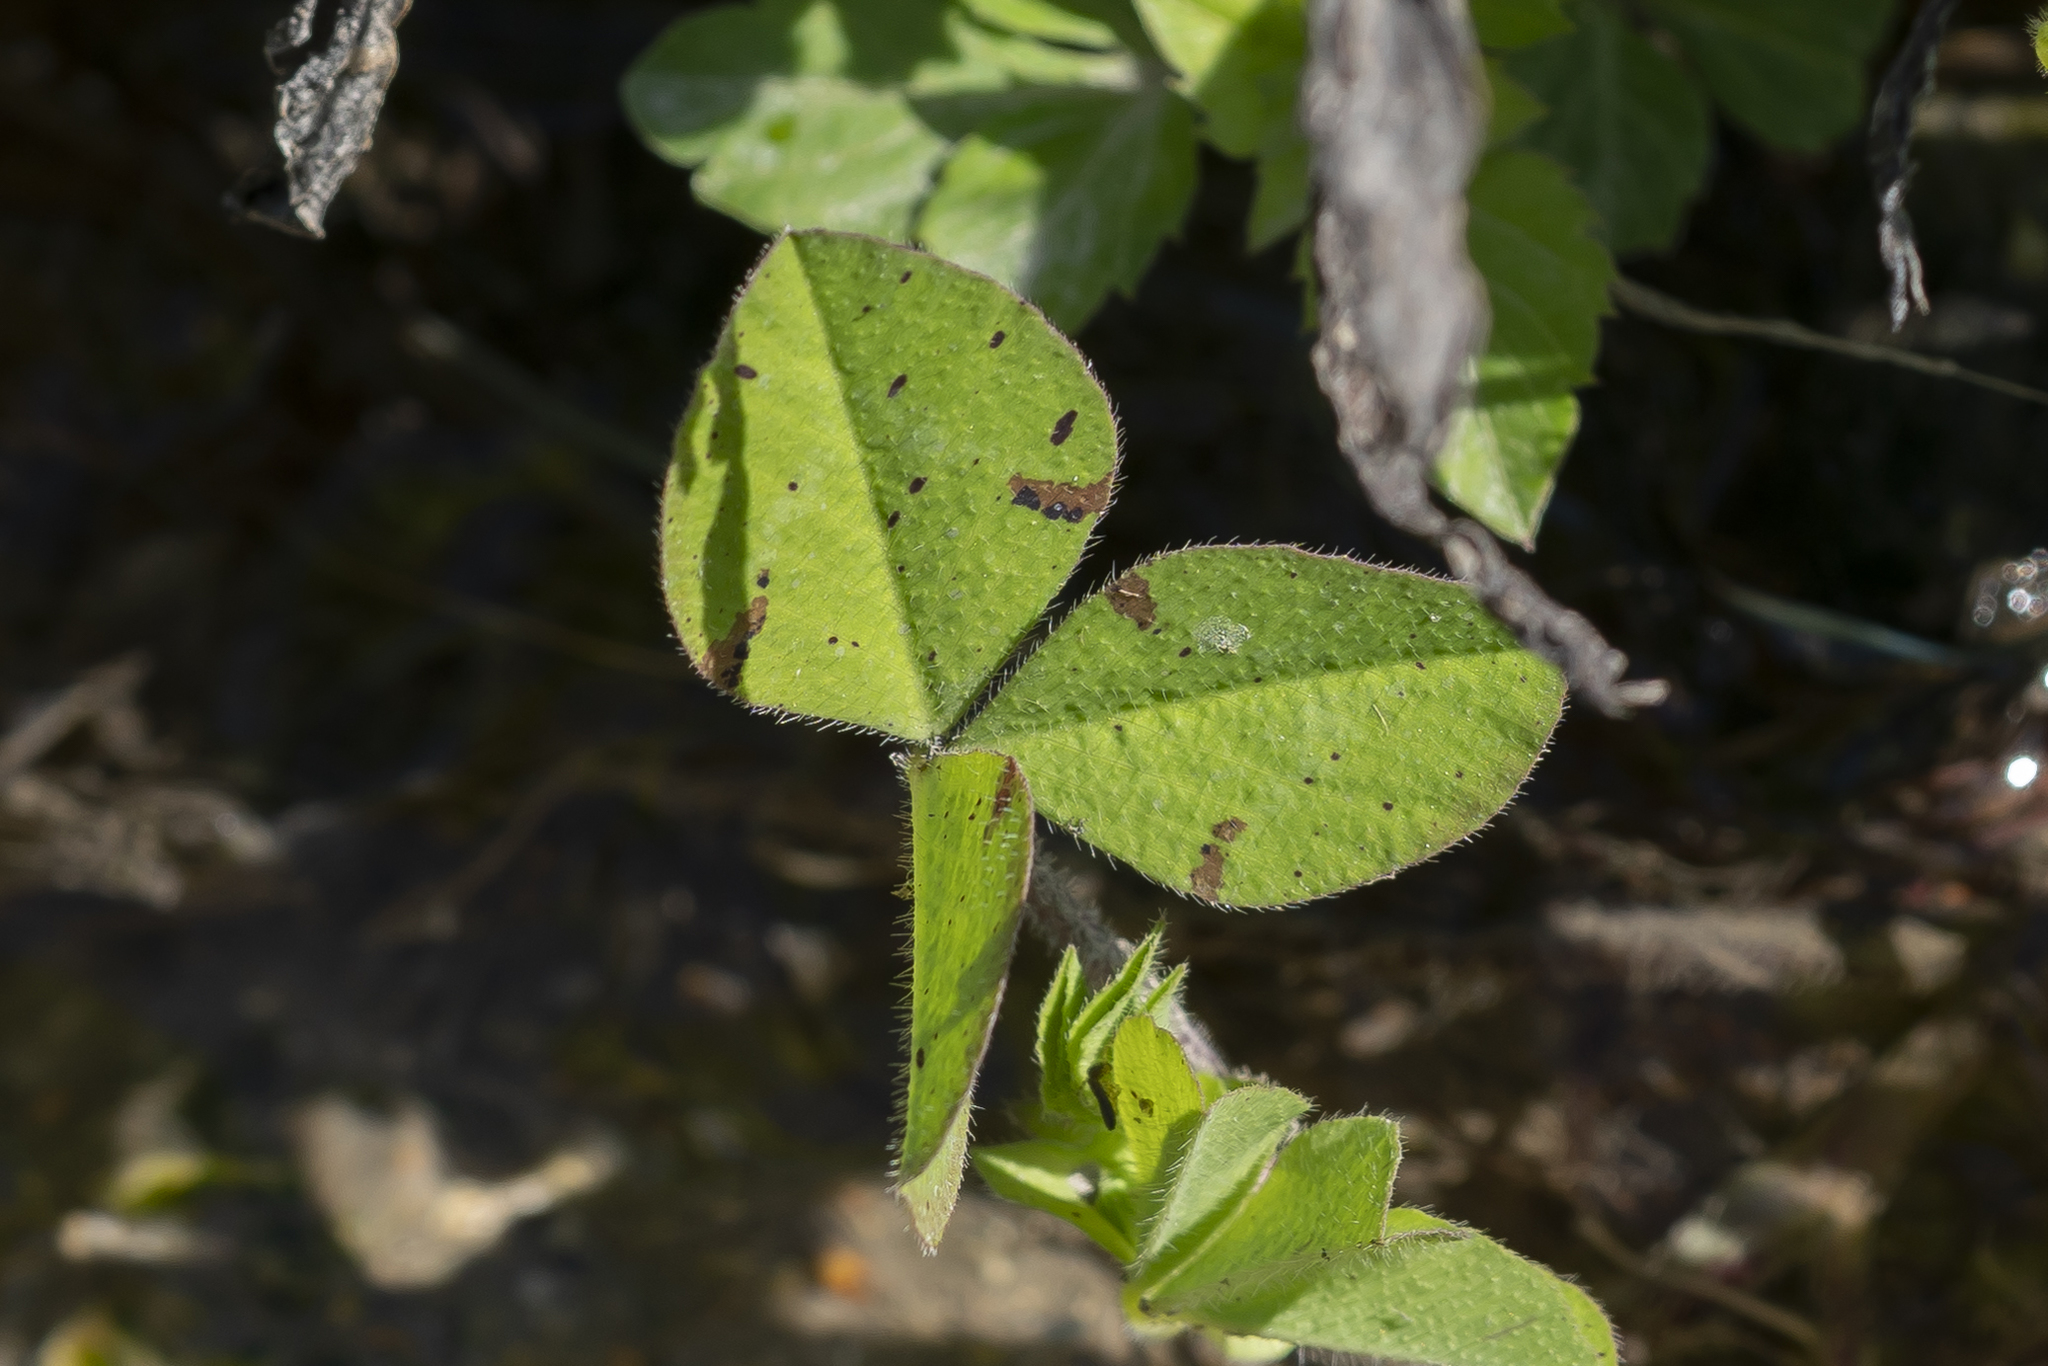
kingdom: Plantae
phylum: Tracheophyta
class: Magnoliopsida
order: Fabales
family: Fabaceae
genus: Trifolium
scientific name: Trifolium clypeatum
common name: Shield clover
